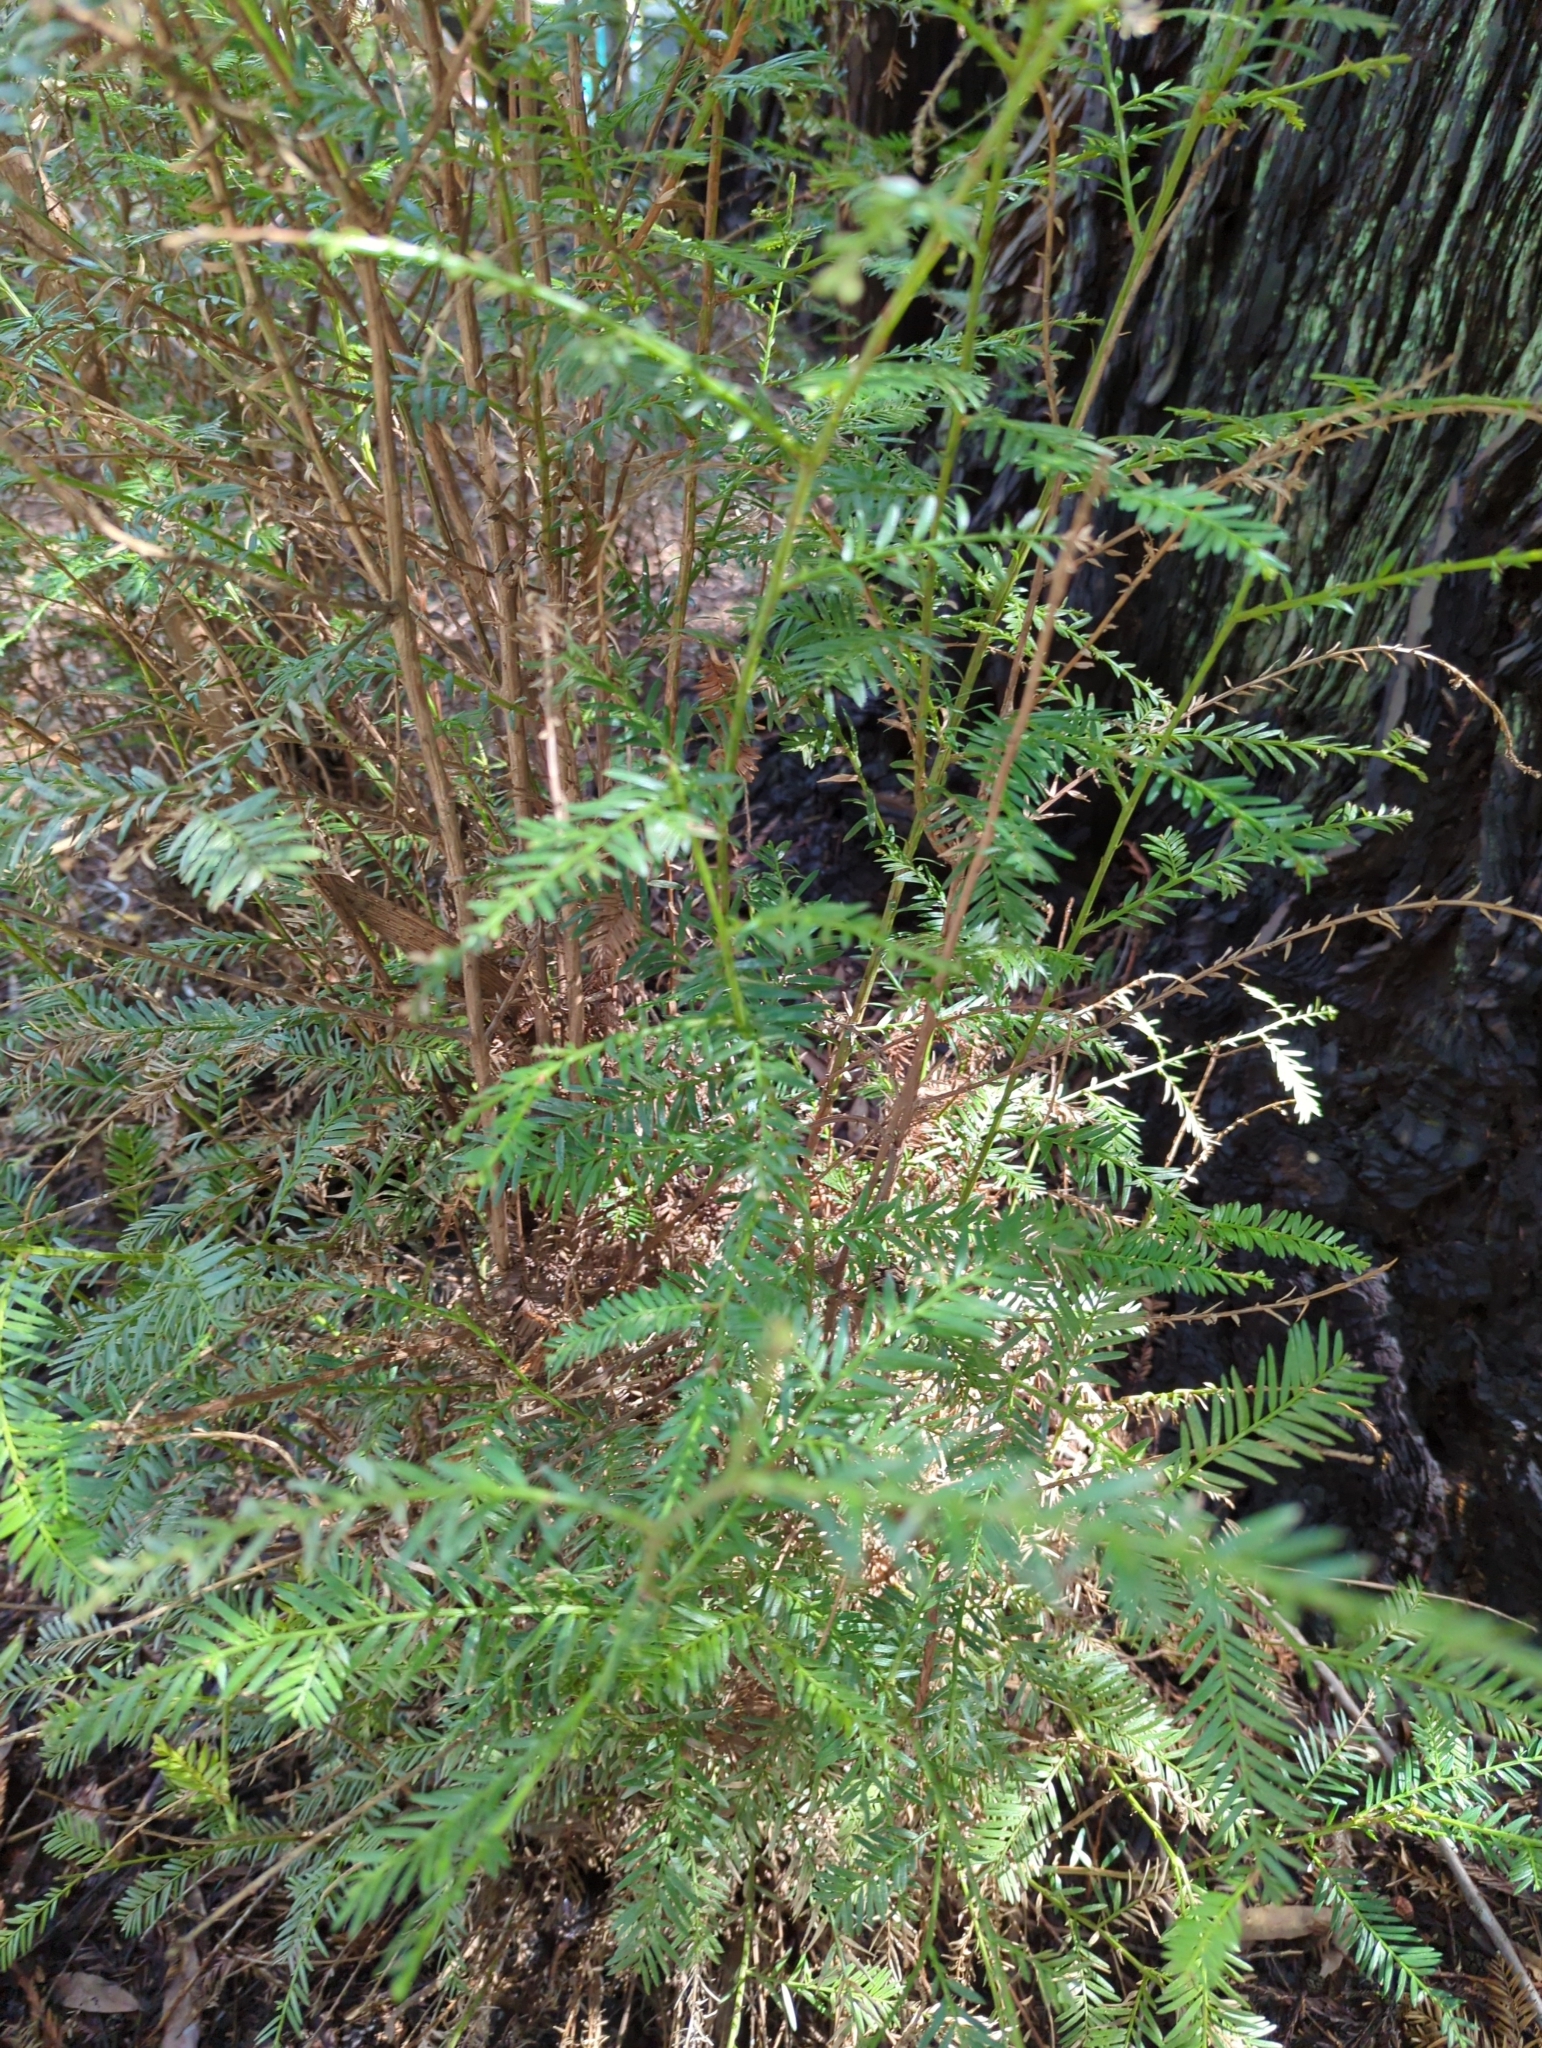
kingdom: Plantae
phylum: Tracheophyta
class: Pinopsida
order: Pinales
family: Cupressaceae
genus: Sequoia
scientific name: Sequoia sempervirens
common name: Coast redwood
